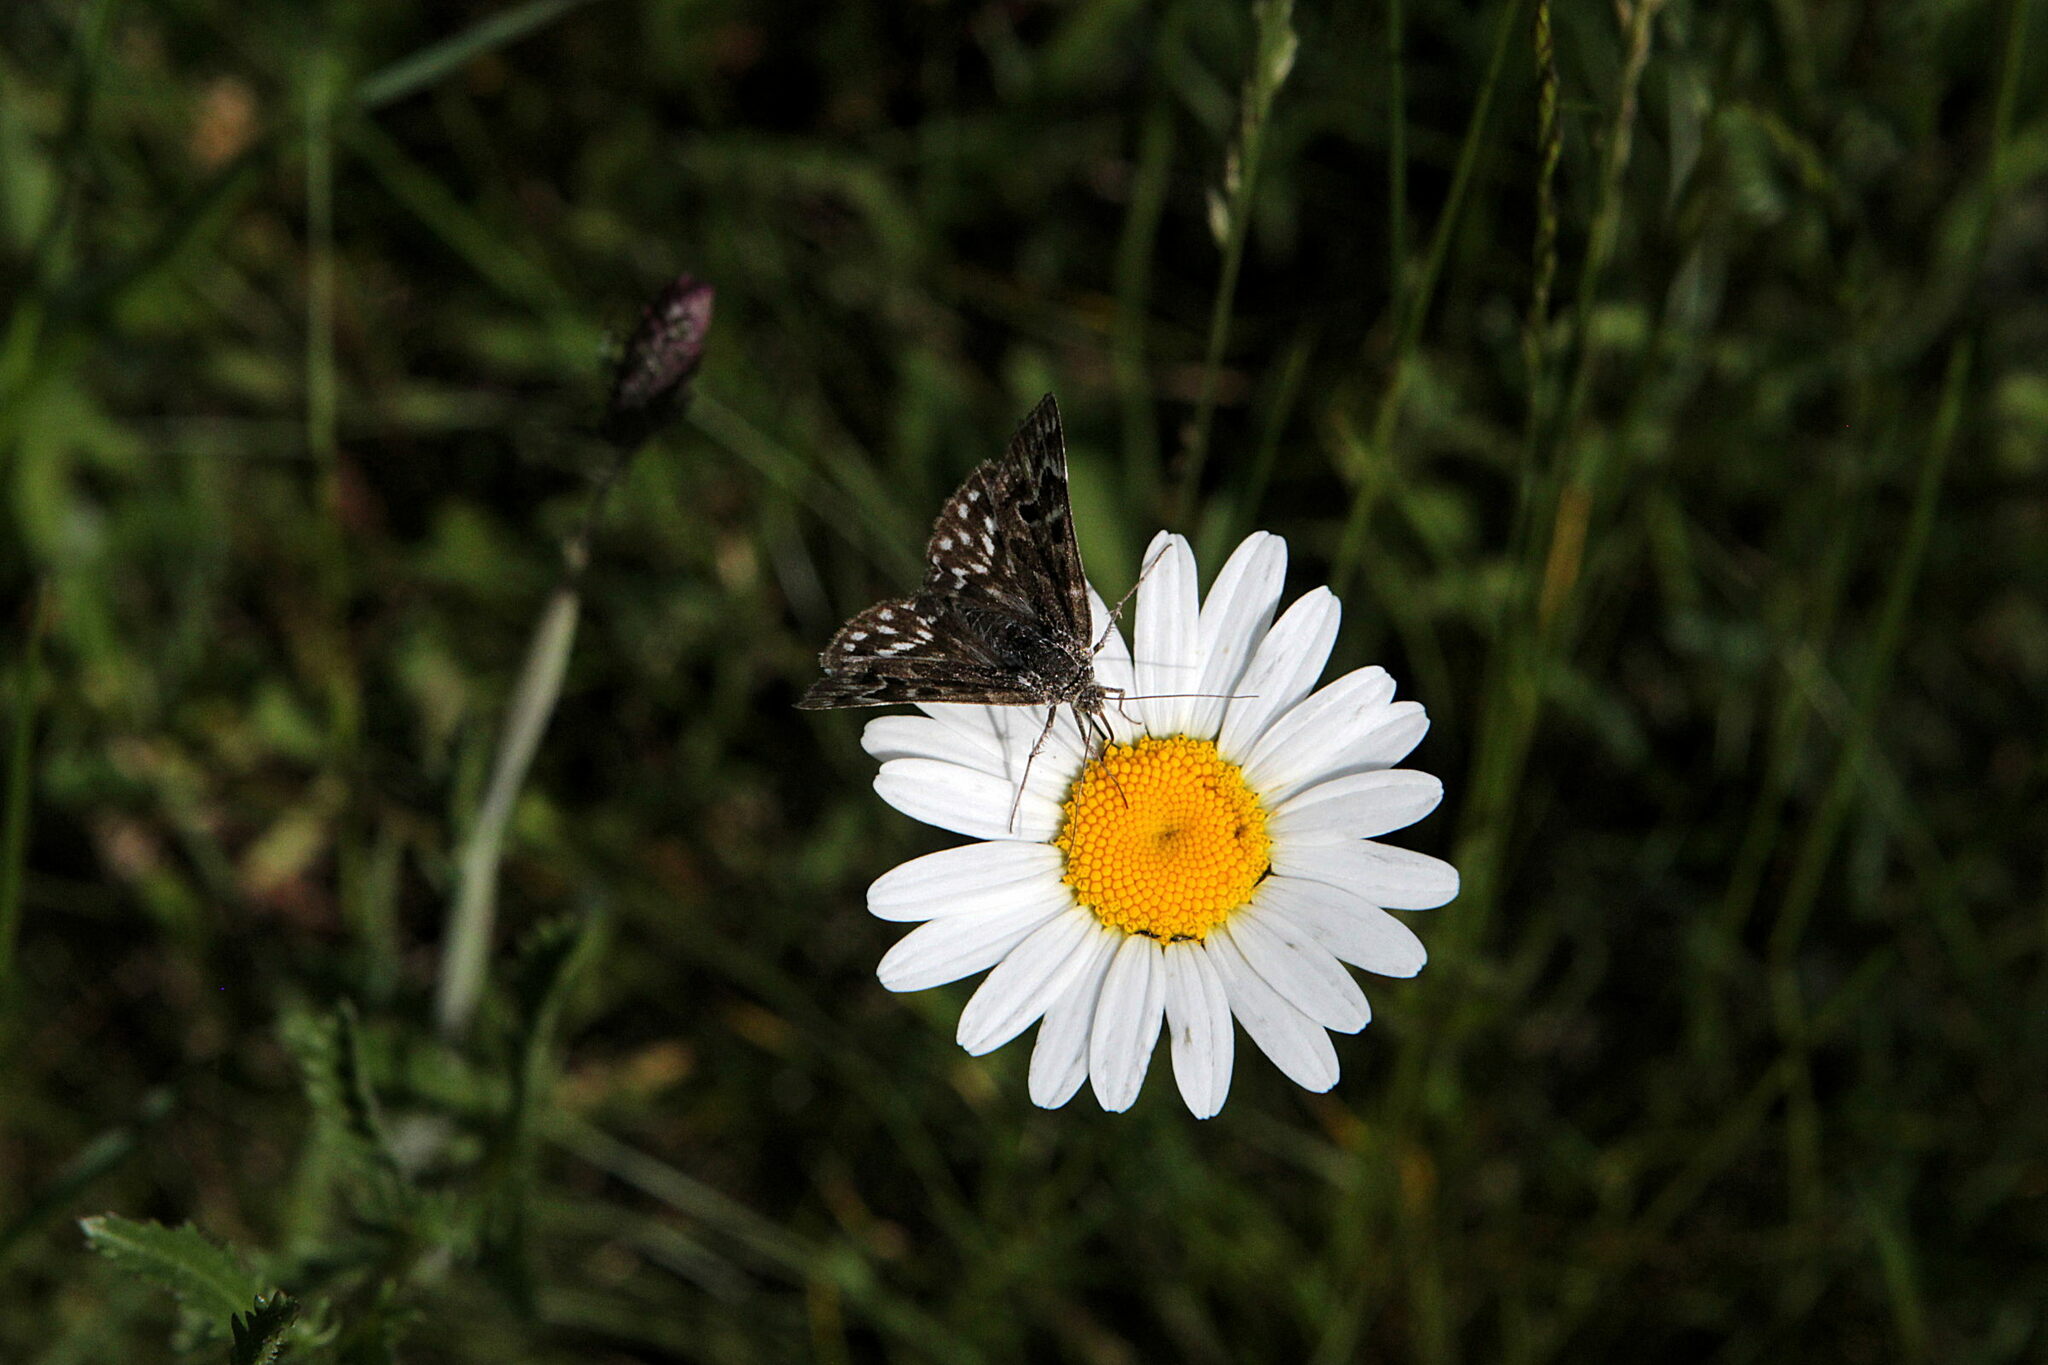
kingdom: Animalia
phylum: Arthropoda
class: Insecta
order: Lepidoptera
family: Erebidae
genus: Callistege
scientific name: Callistege mi
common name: Mother shipton
